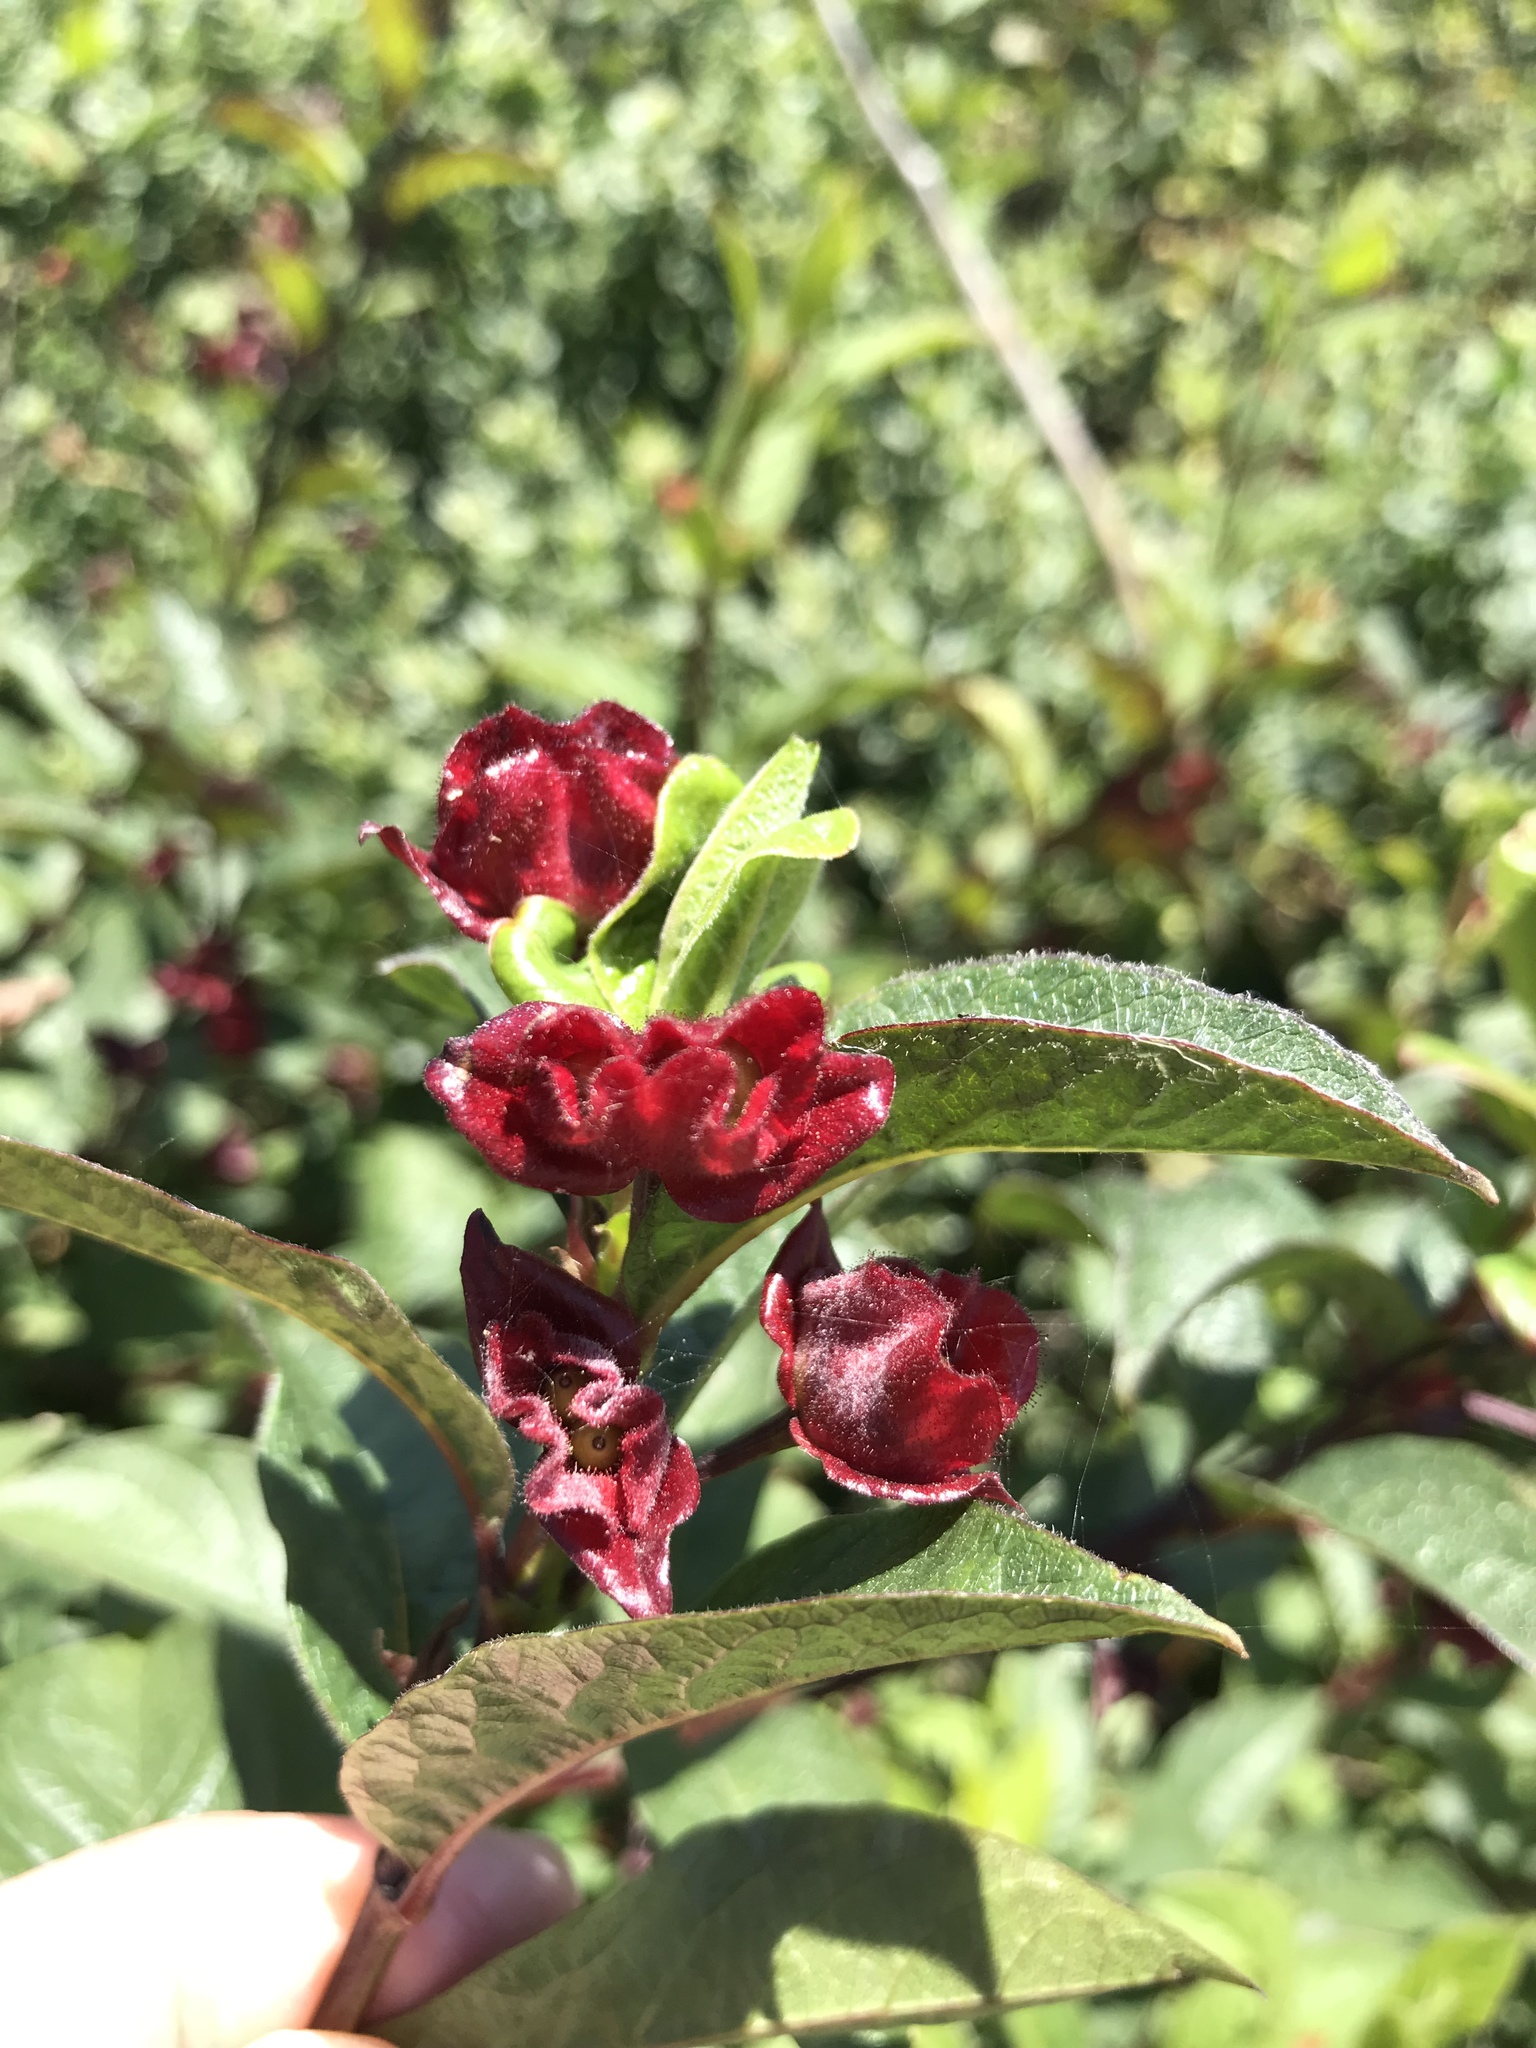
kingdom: Plantae
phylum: Tracheophyta
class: Magnoliopsida
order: Dipsacales
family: Caprifoliaceae
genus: Lonicera
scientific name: Lonicera involucrata
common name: Californian honeysuckle
